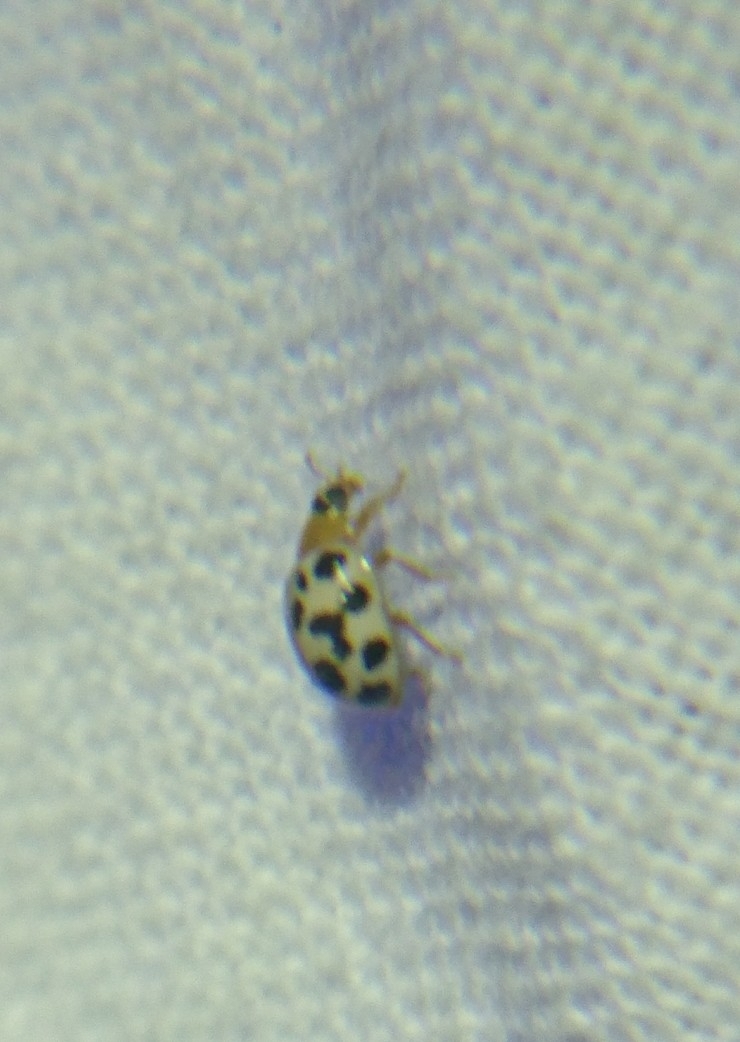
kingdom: Animalia
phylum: Arthropoda
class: Insecta
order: Coleoptera
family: Coccinellidae
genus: Psyllobora
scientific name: Psyllobora parvinotata
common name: Small-spotted psyllobora
